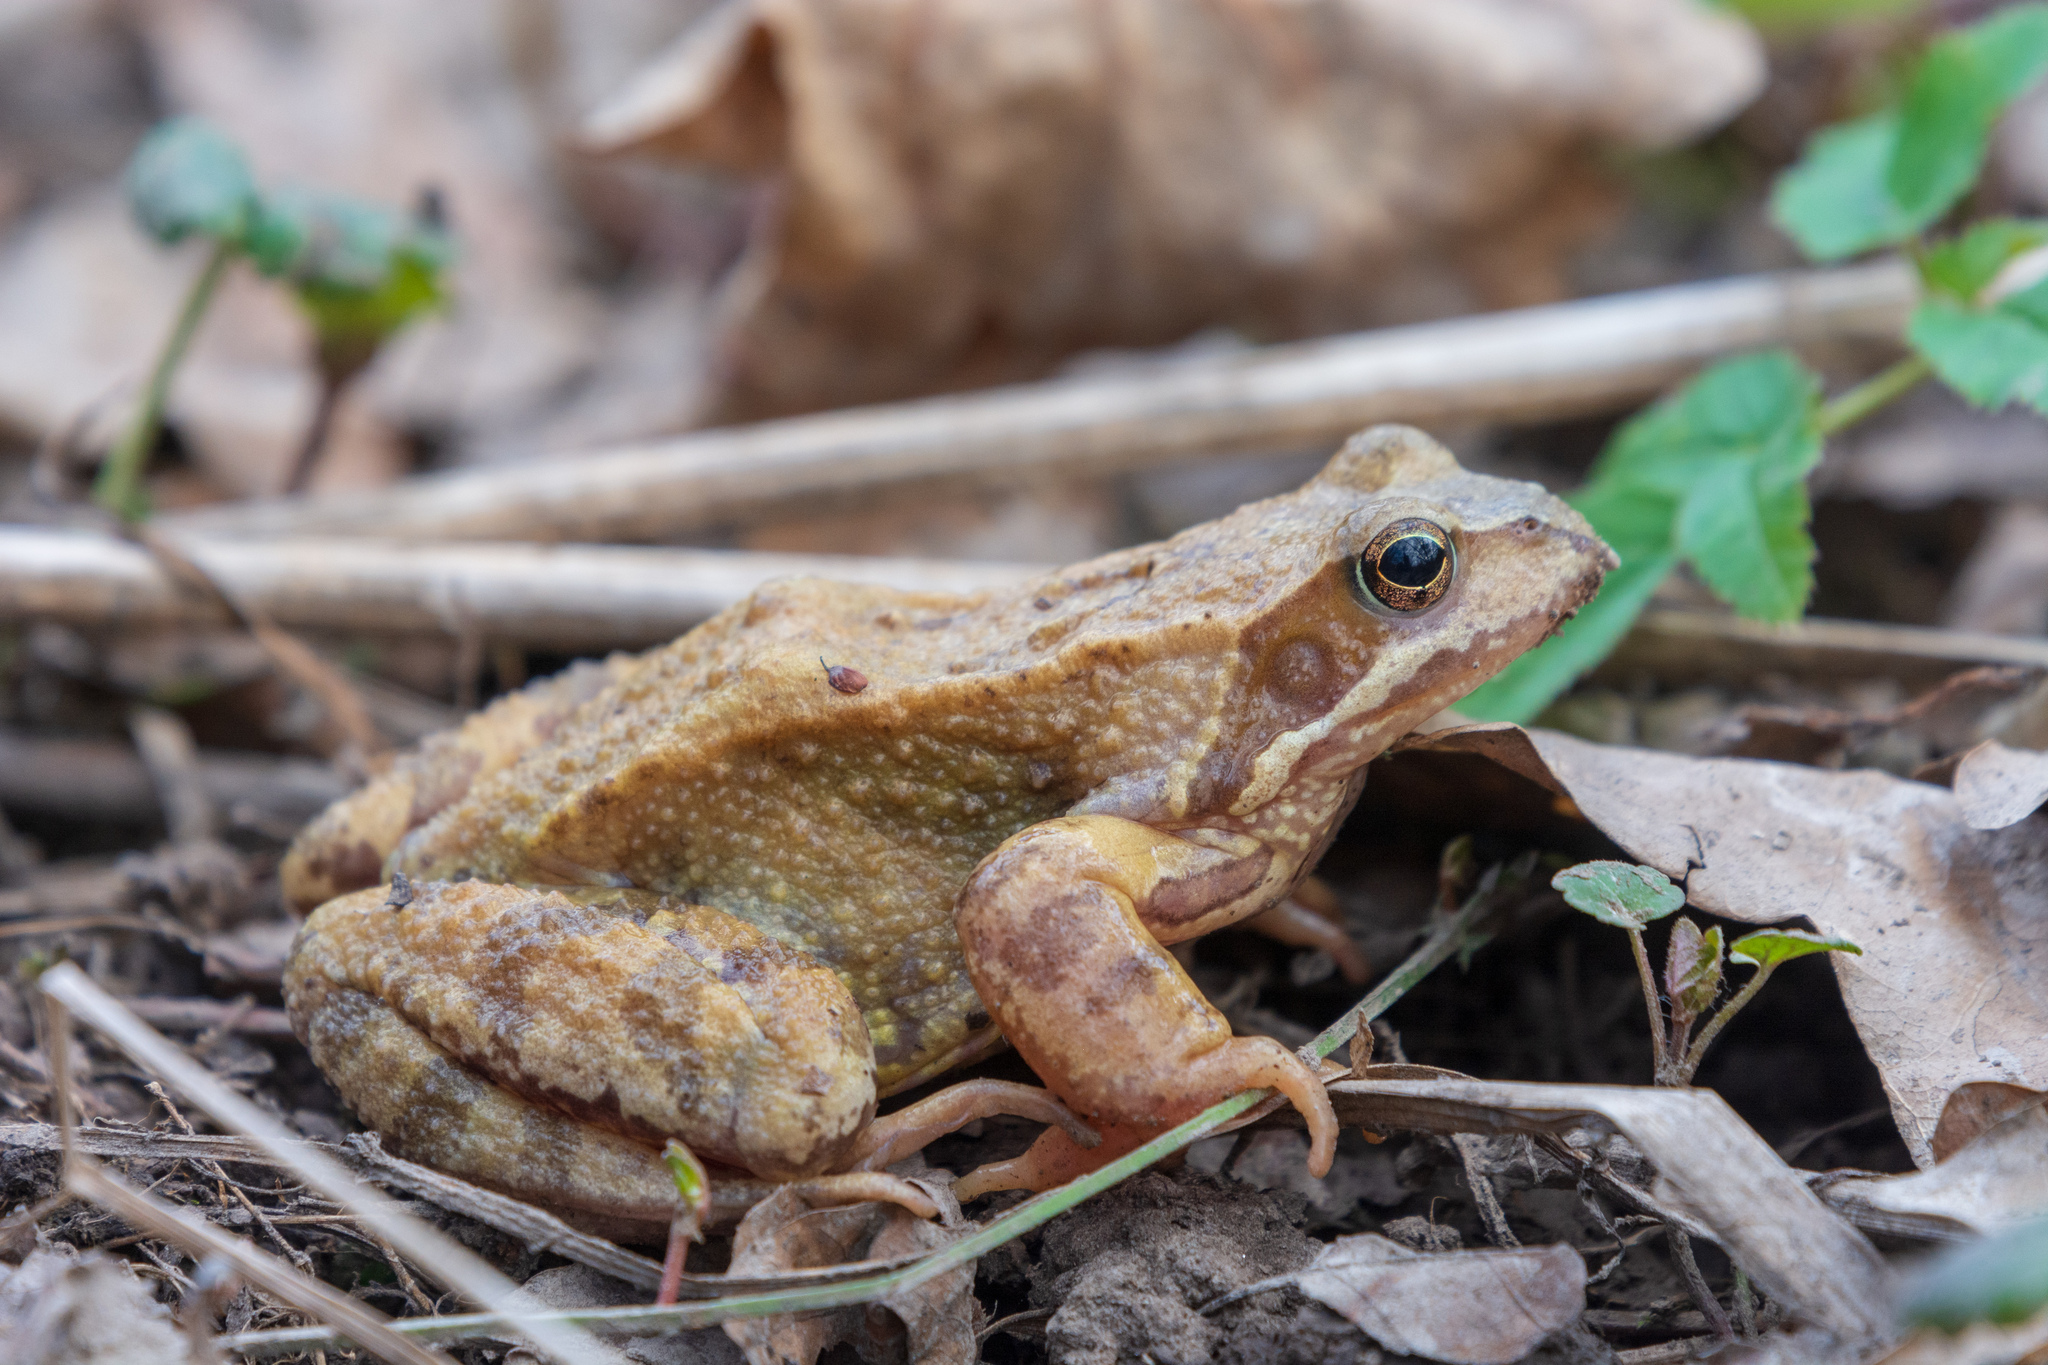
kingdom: Animalia
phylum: Chordata
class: Amphibia
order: Anura
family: Ranidae
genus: Rana
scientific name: Rana temporaria
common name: Common frog
